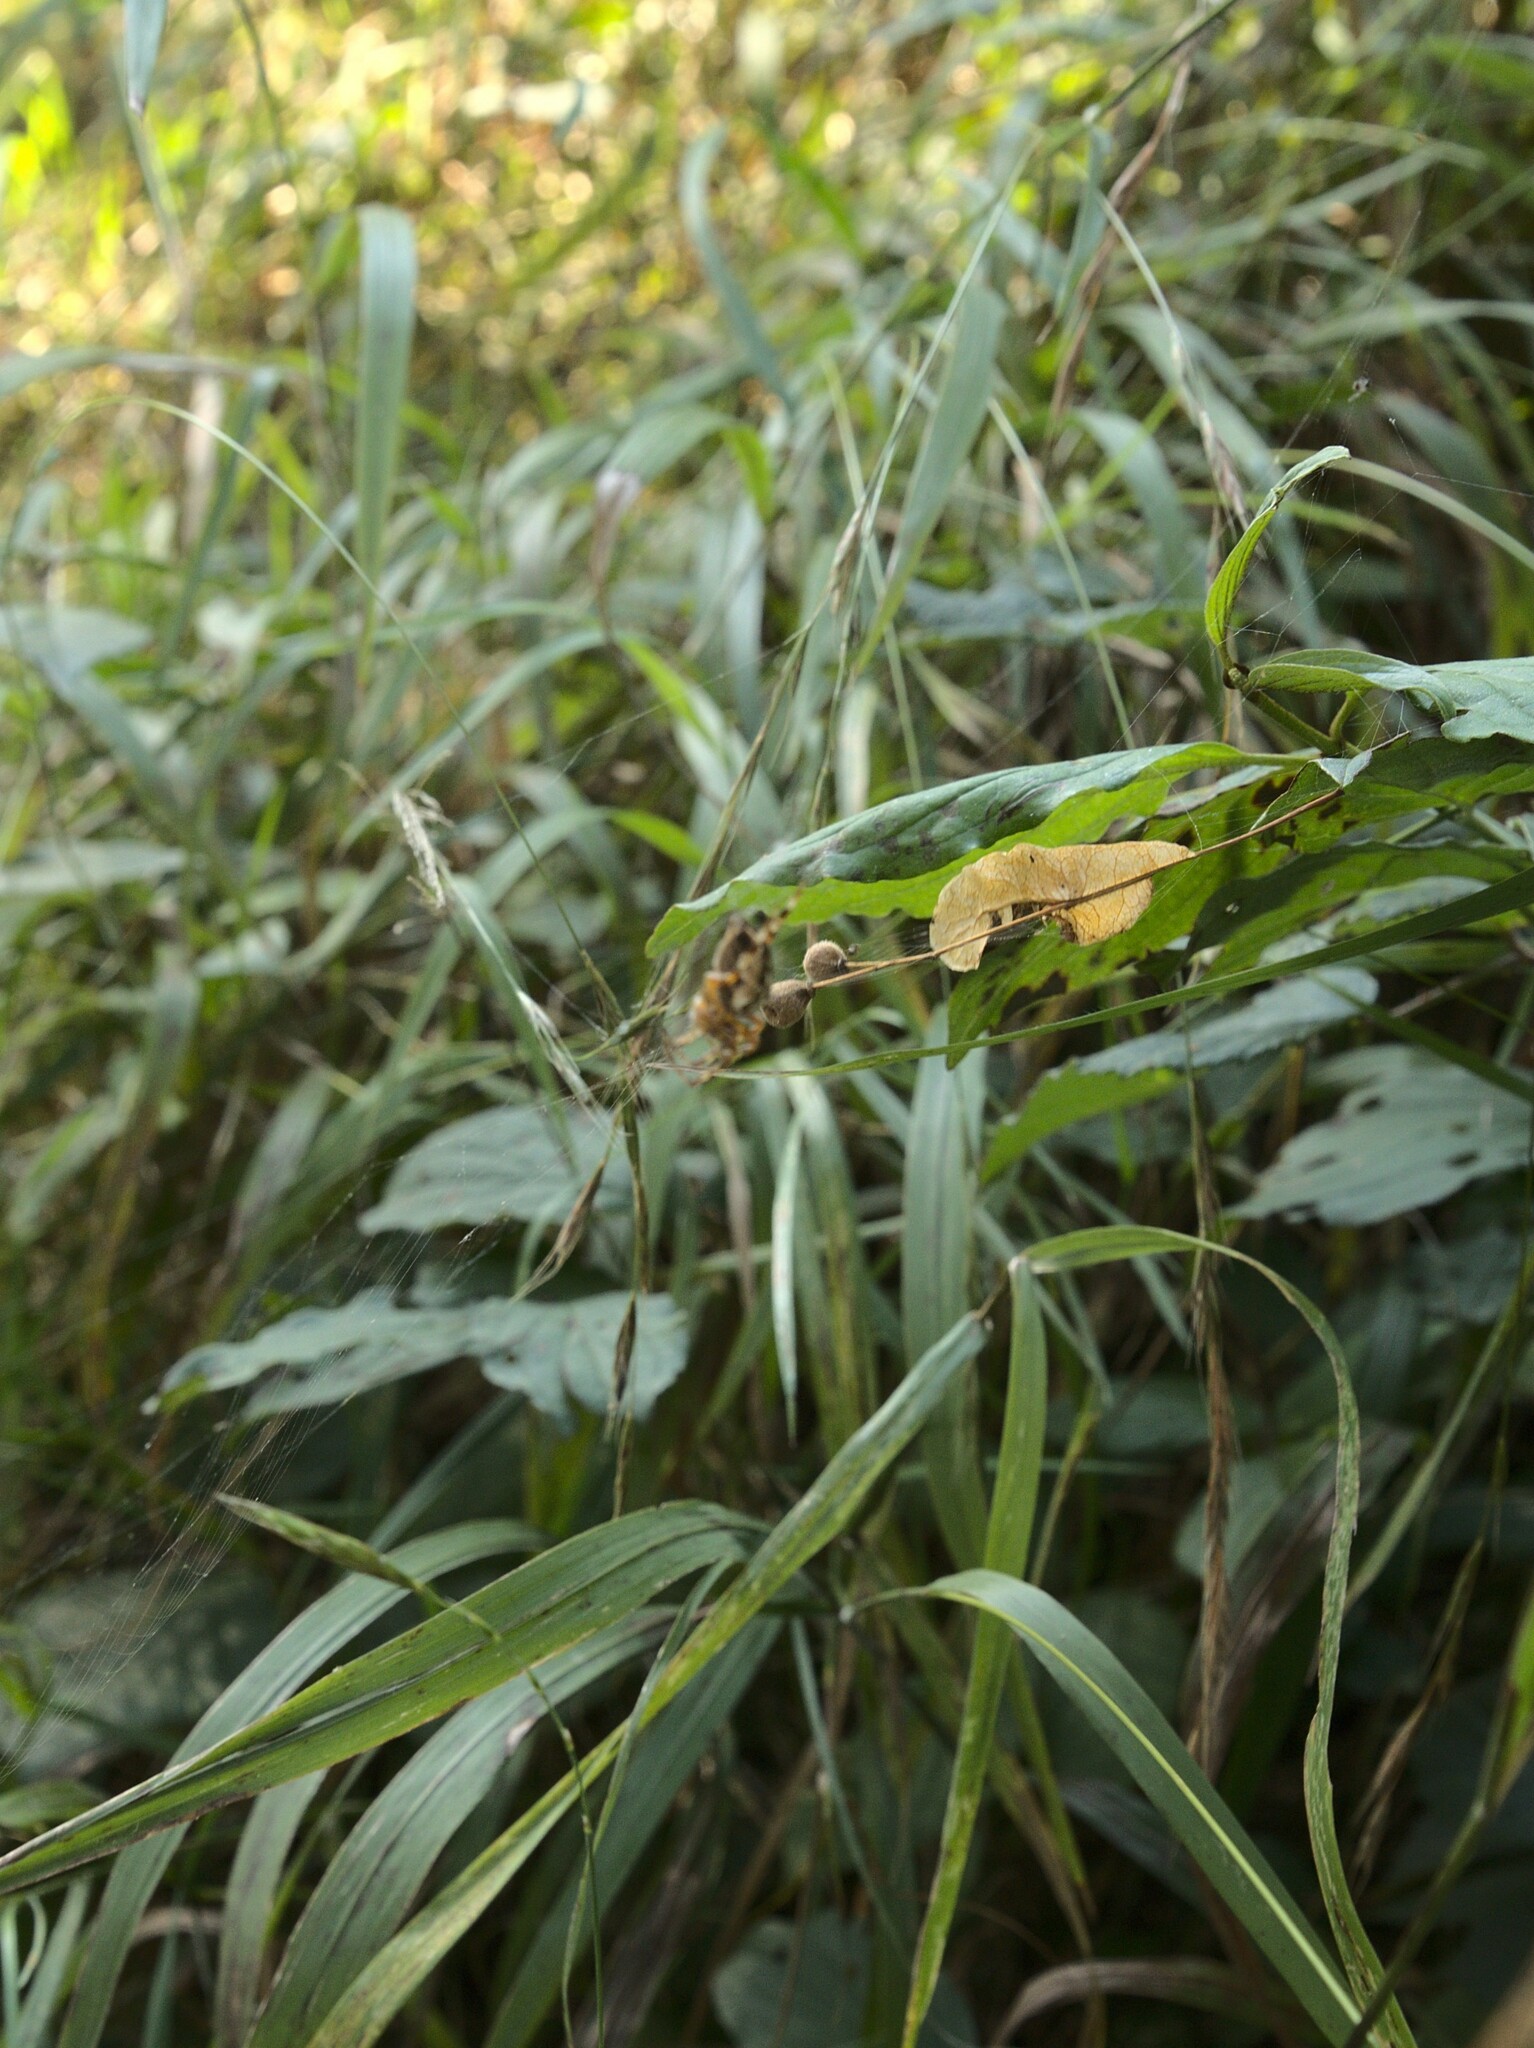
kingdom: Animalia
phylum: Arthropoda
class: Arachnida
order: Araneae
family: Araneidae
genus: Araneus
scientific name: Araneus diadematus
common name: Cross orbweaver
